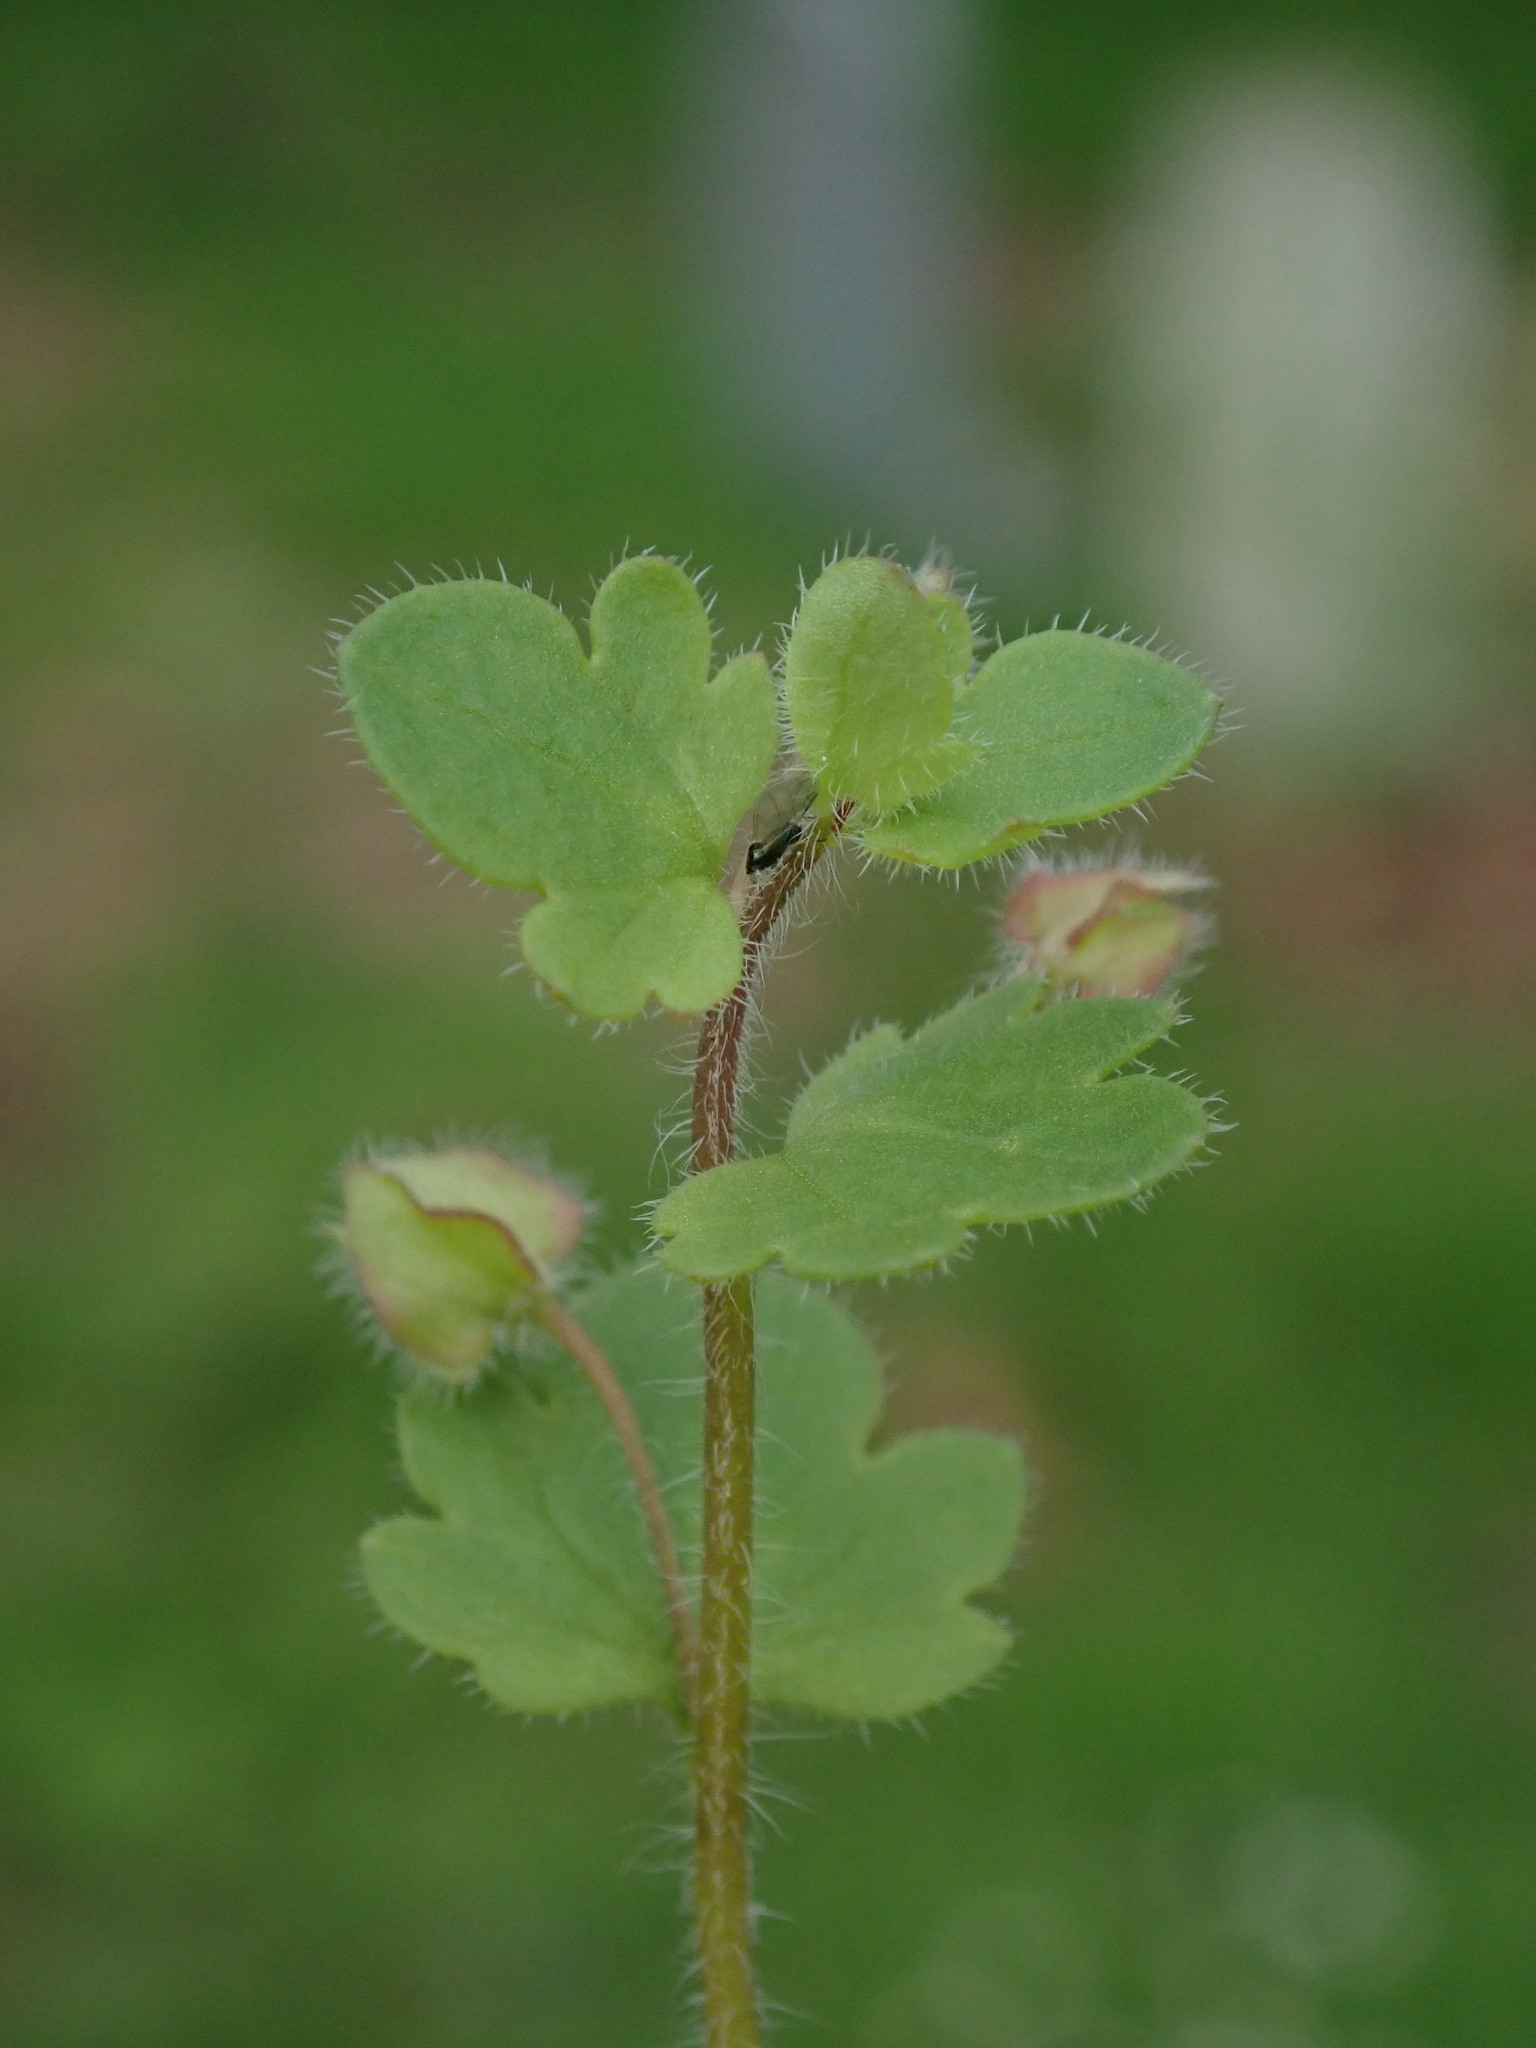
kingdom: Plantae
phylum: Tracheophyta
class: Magnoliopsida
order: Lamiales
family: Plantaginaceae
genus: Veronica
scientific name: Veronica sublobata
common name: False ivy-leaved speedwell
